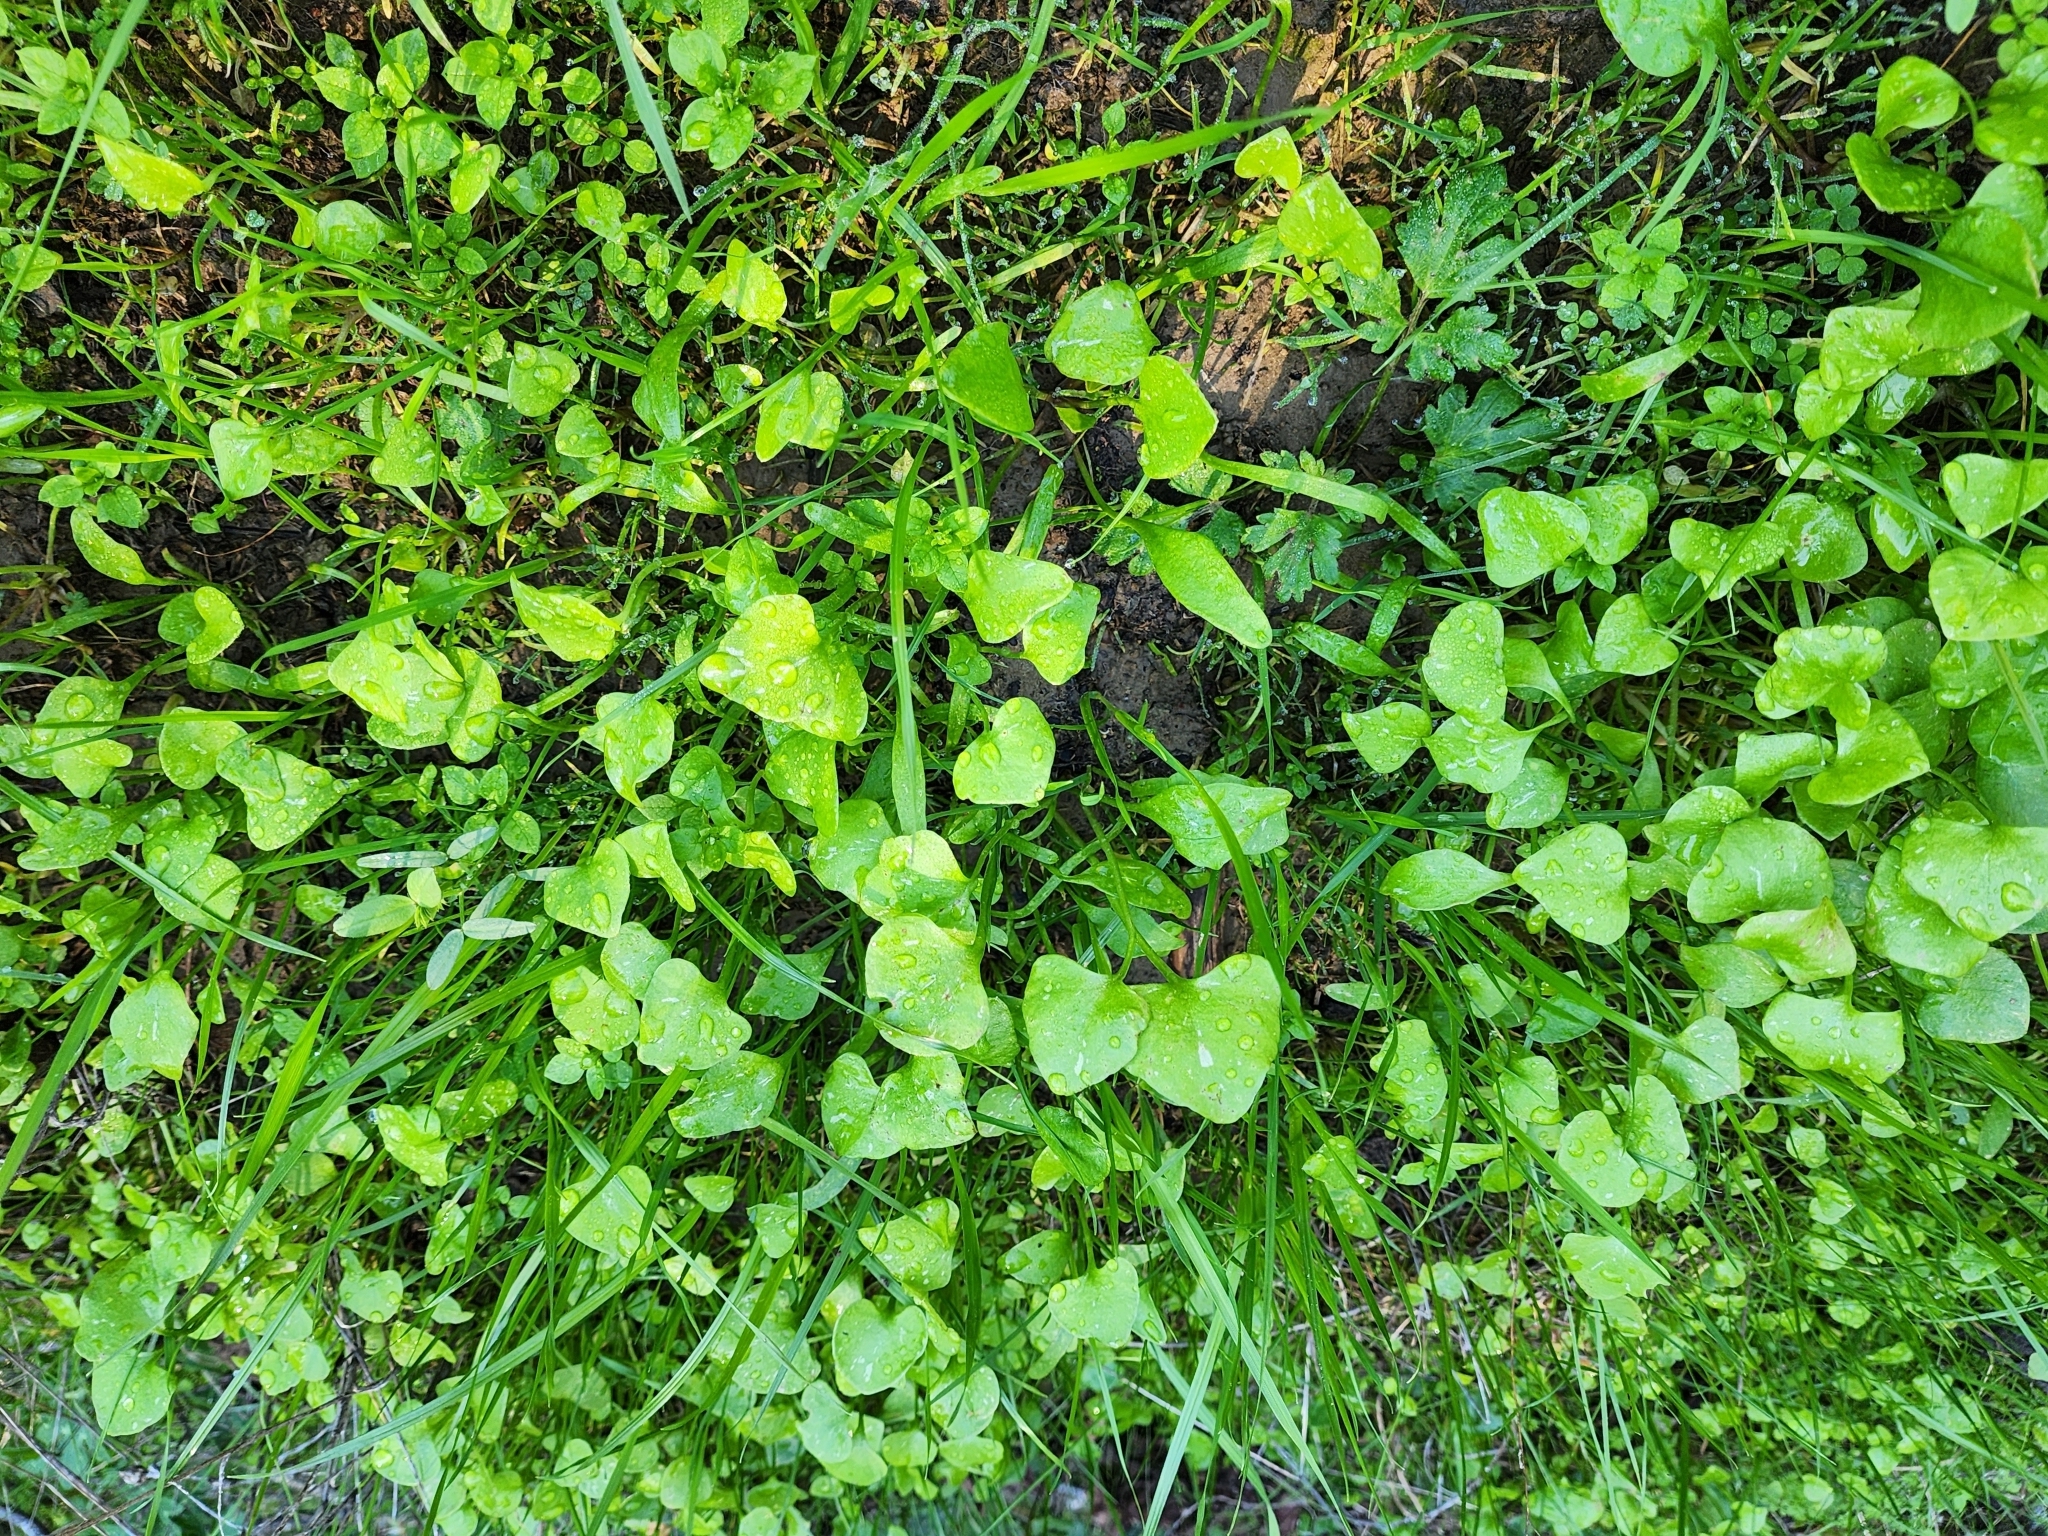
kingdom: Plantae
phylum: Tracheophyta
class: Magnoliopsida
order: Caryophyllales
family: Montiaceae
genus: Claytonia
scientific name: Claytonia perfoliata
